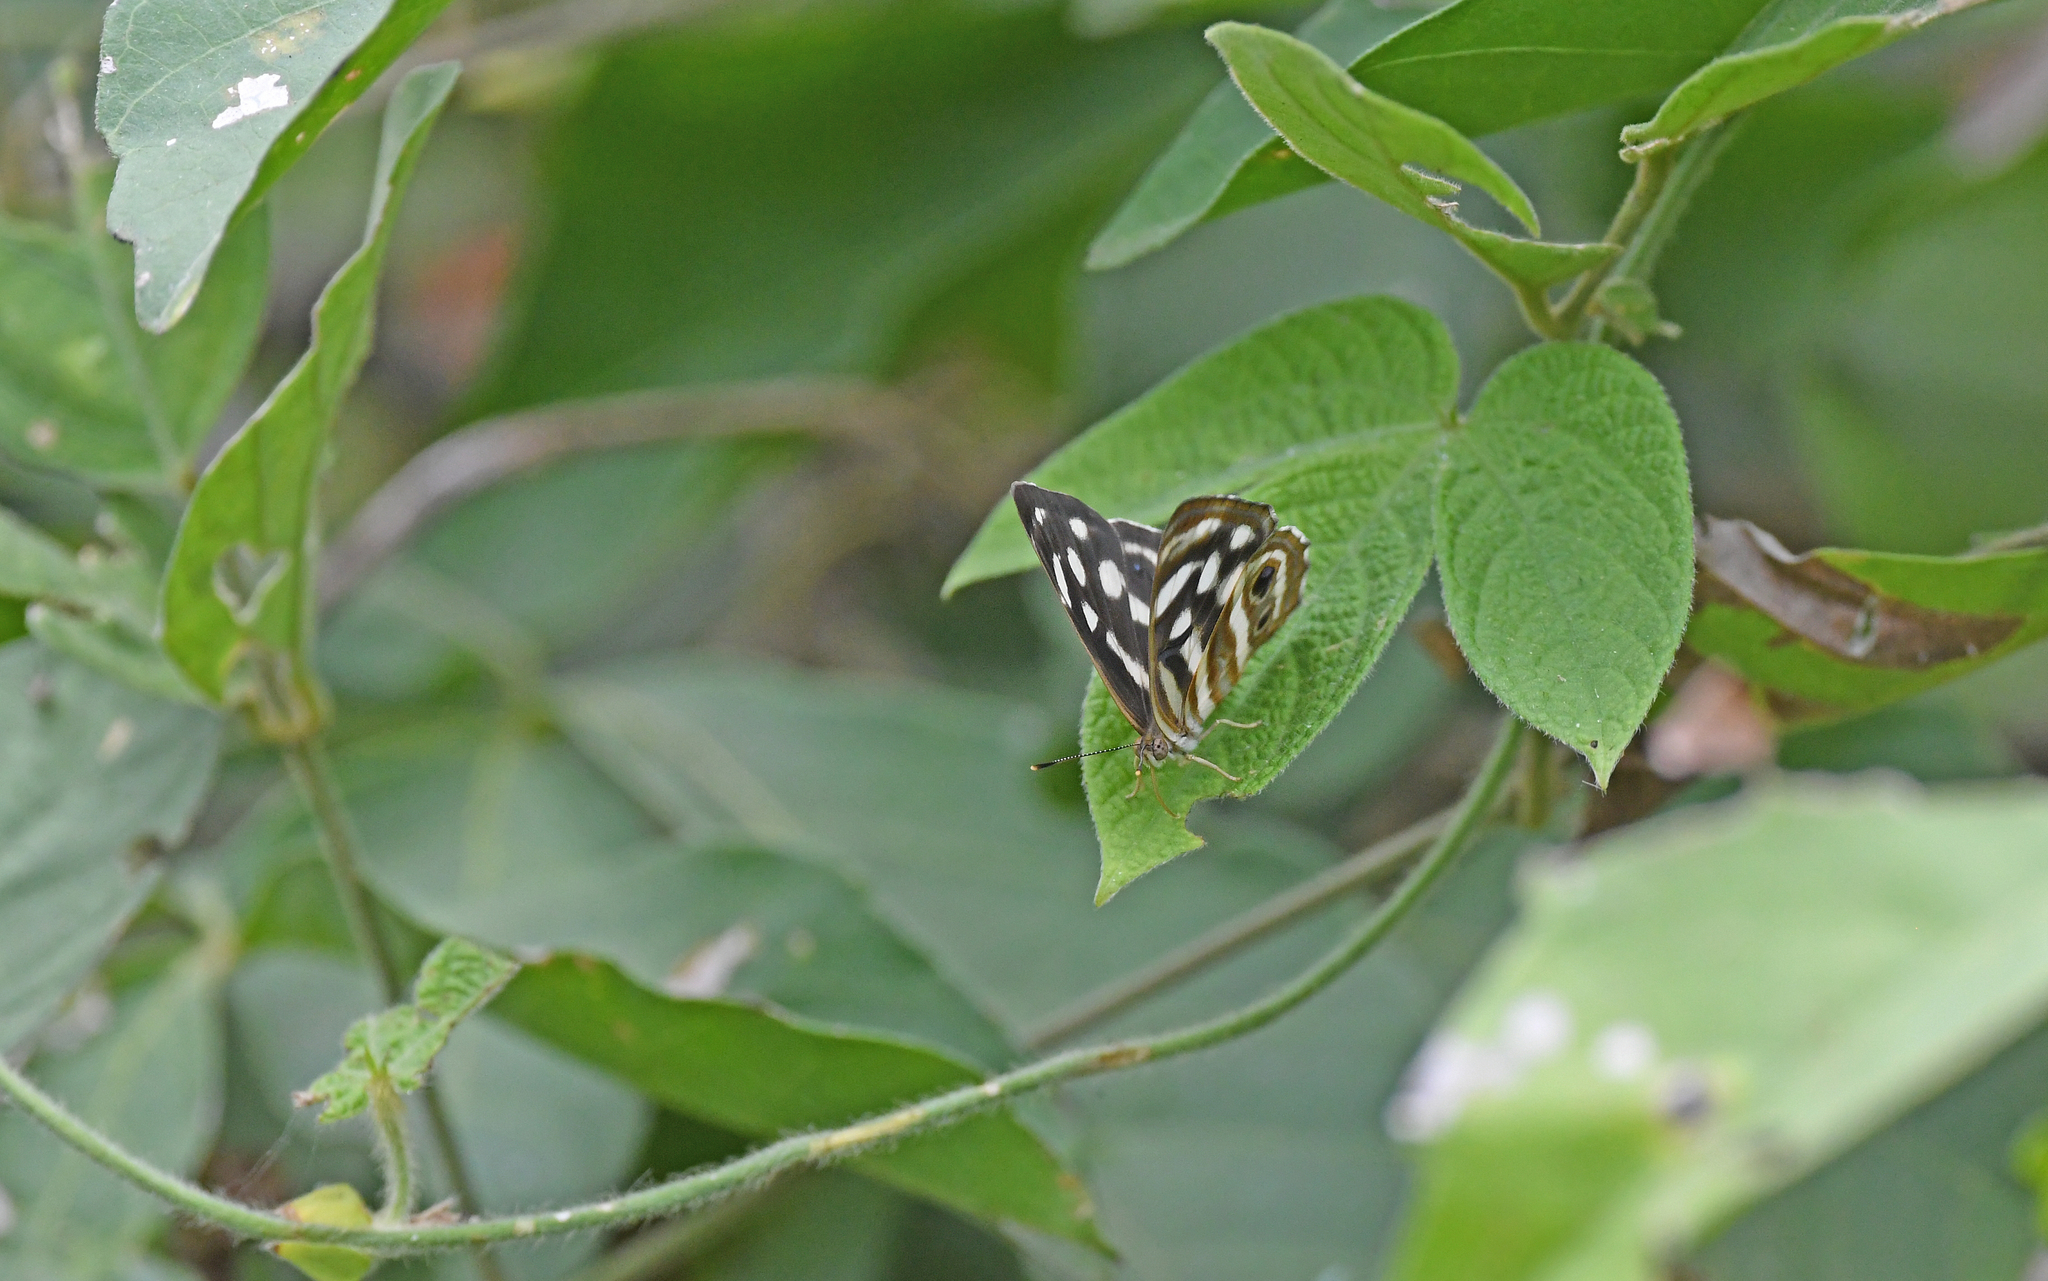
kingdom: Animalia
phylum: Arthropoda
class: Insecta
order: Lepidoptera
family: Nymphalidae
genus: Dynamine
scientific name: Dynamine mylitta
